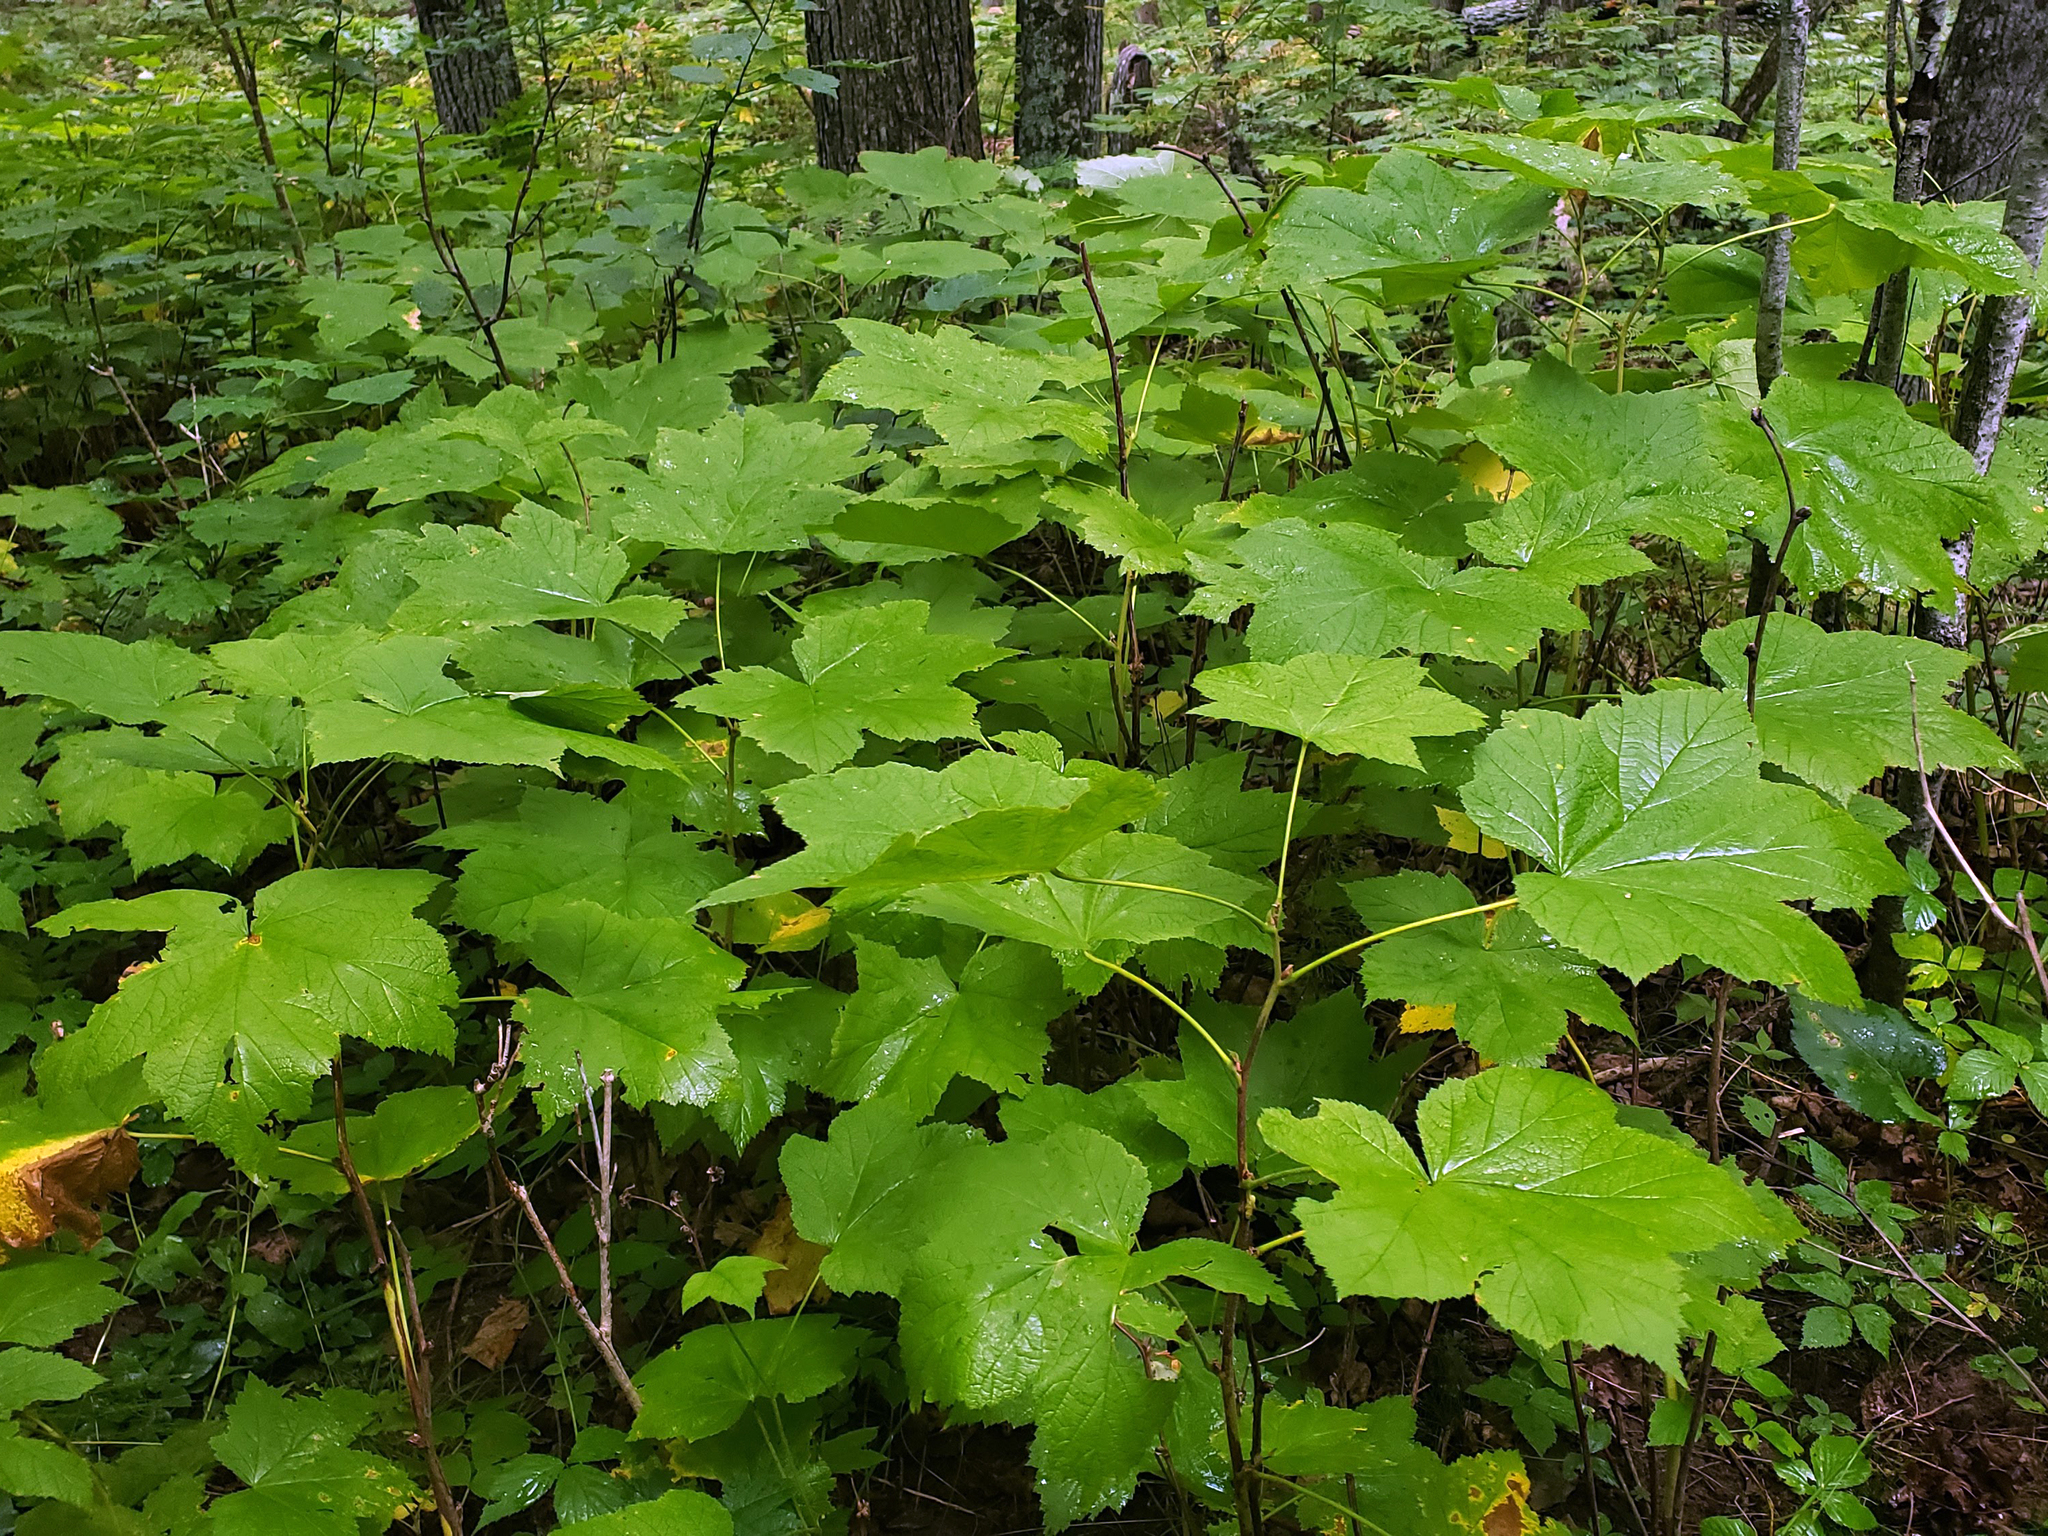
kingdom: Plantae
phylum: Tracheophyta
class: Magnoliopsida
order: Rosales
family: Rosaceae
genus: Rubus
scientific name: Rubus parviflorus
